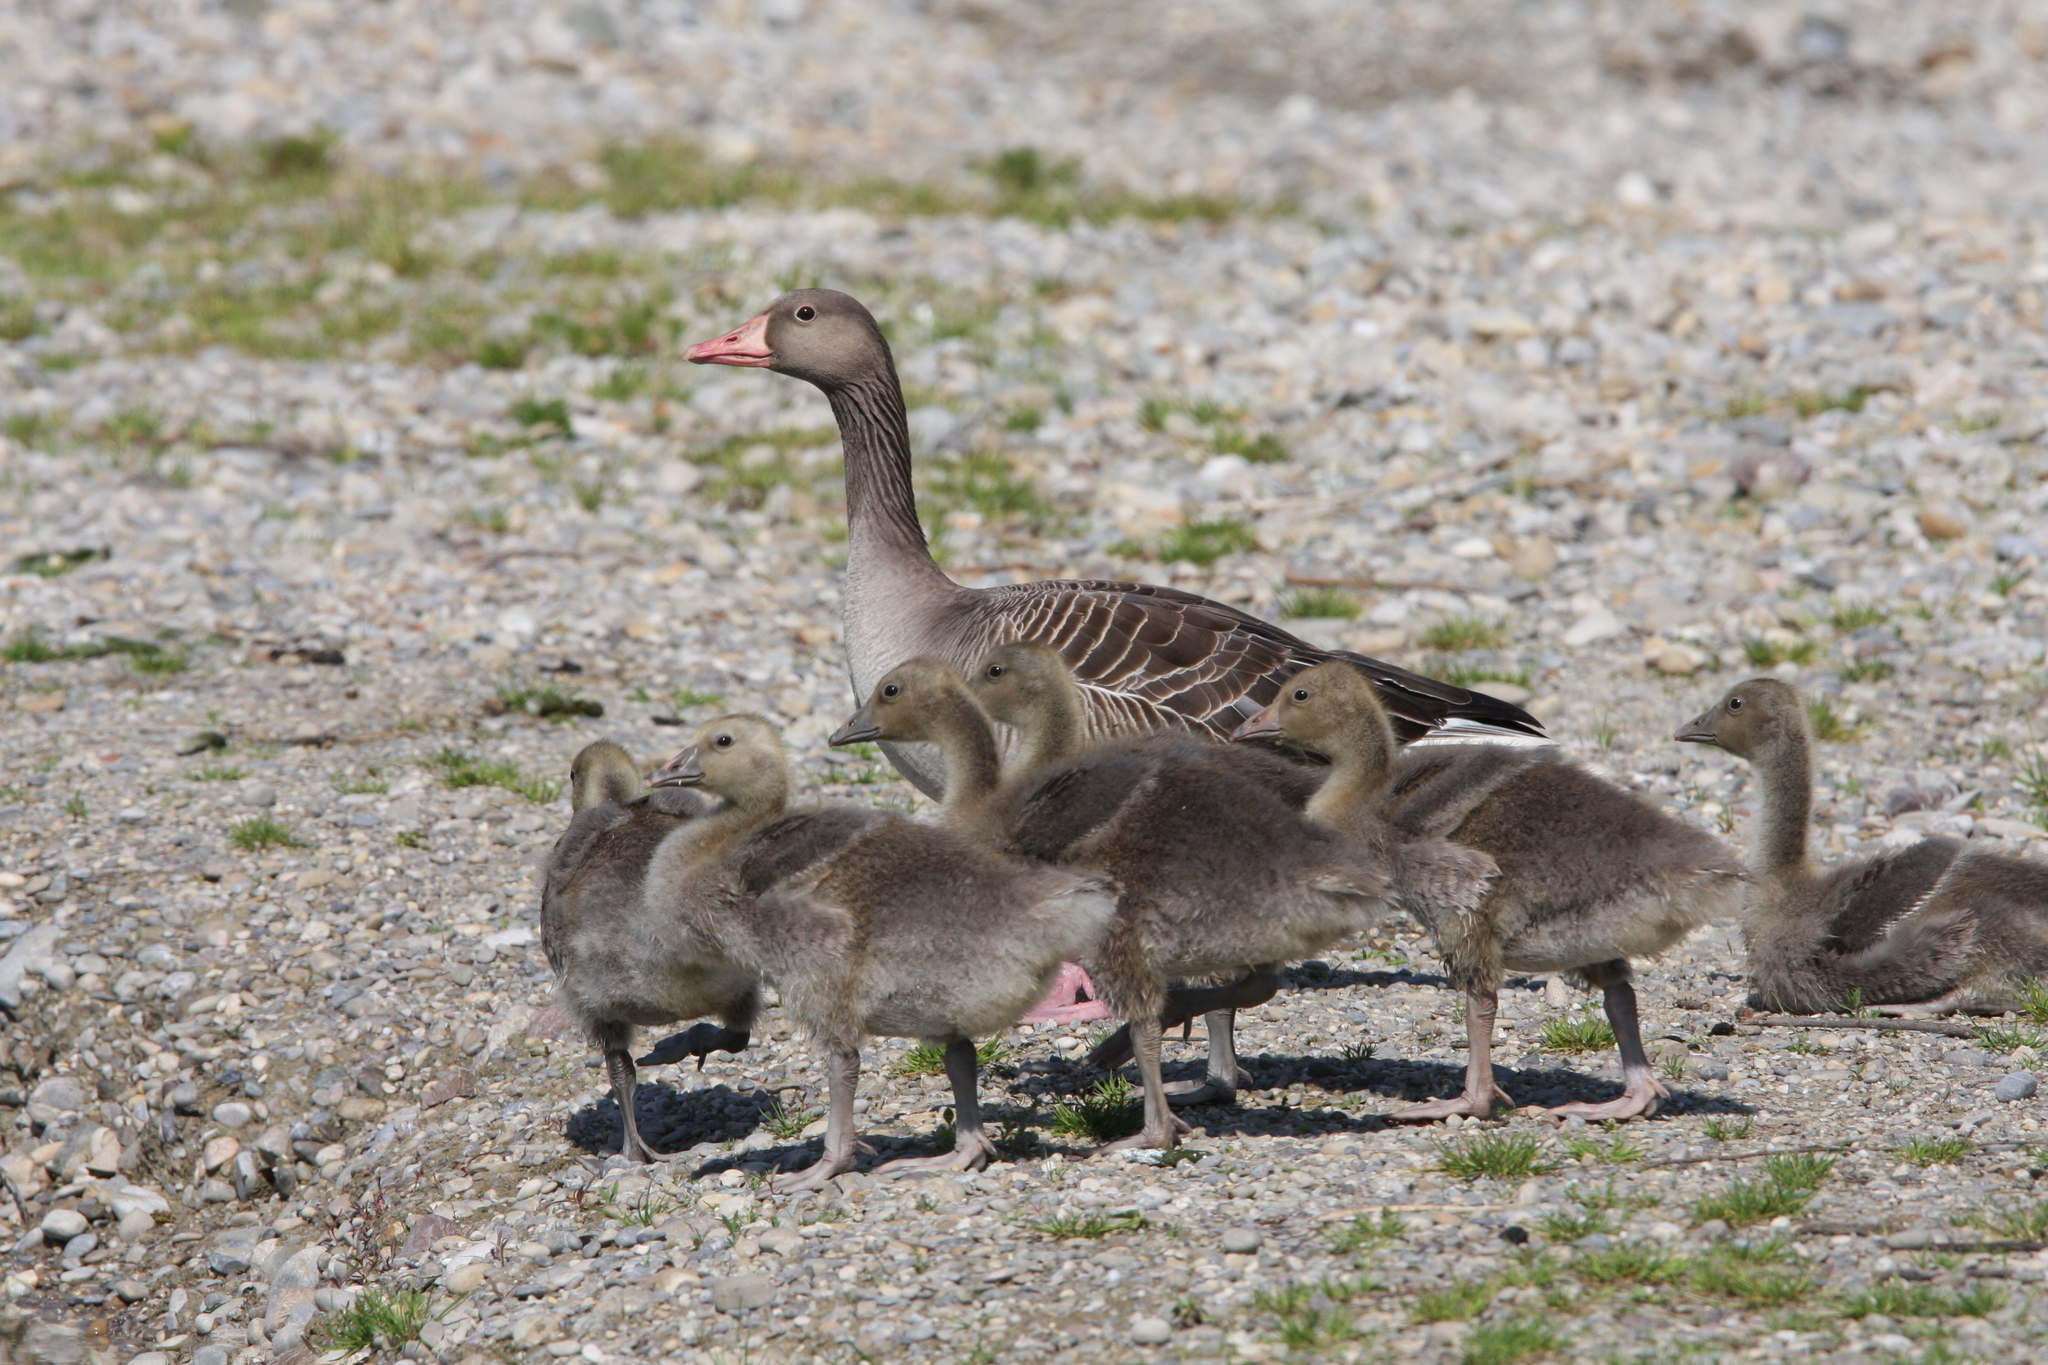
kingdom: Animalia
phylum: Chordata
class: Aves
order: Anseriformes
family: Anatidae
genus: Anser
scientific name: Anser anser
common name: Greylag goose
